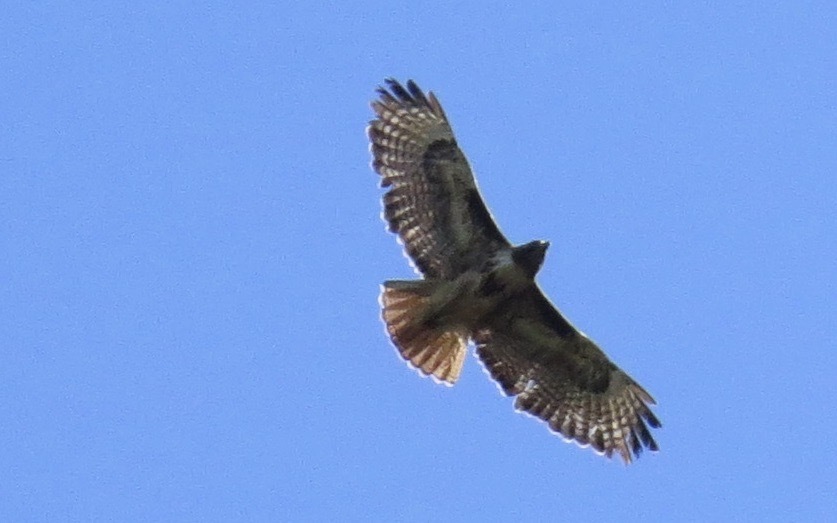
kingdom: Animalia
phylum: Chordata
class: Aves
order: Accipitriformes
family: Accipitridae
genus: Buteo
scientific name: Buteo jamaicensis
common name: Red-tailed hawk
